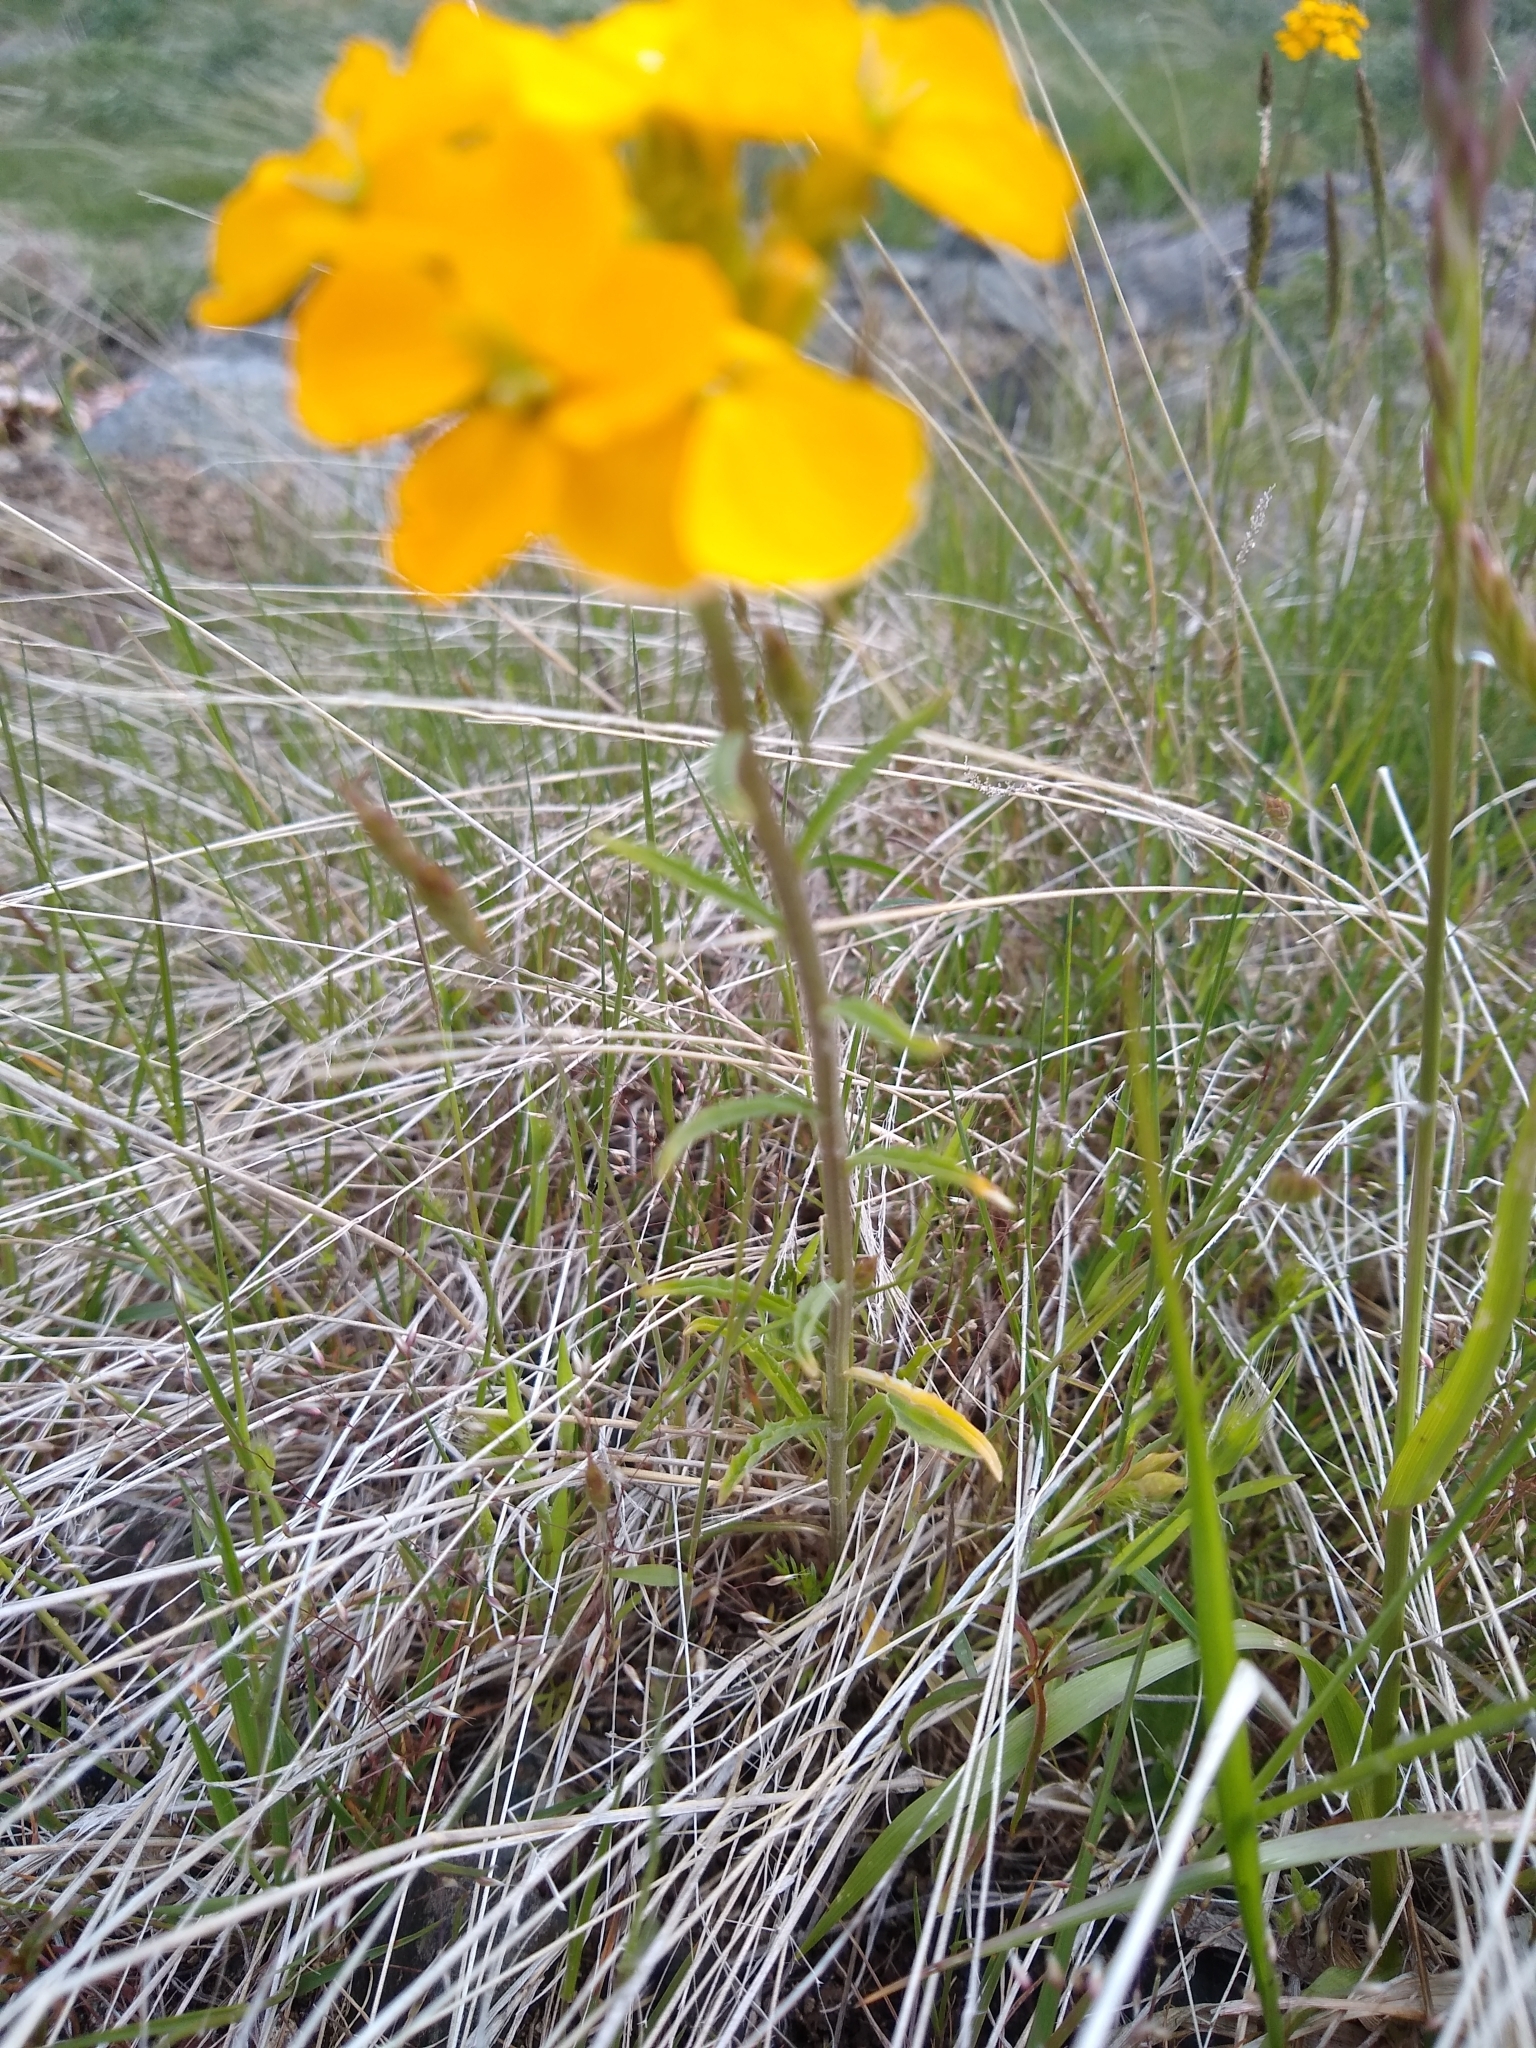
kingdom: Plantae
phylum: Tracheophyta
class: Magnoliopsida
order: Brassicales
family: Brassicaceae
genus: Erysimum
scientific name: Erysimum capitatum
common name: Western wallflower
